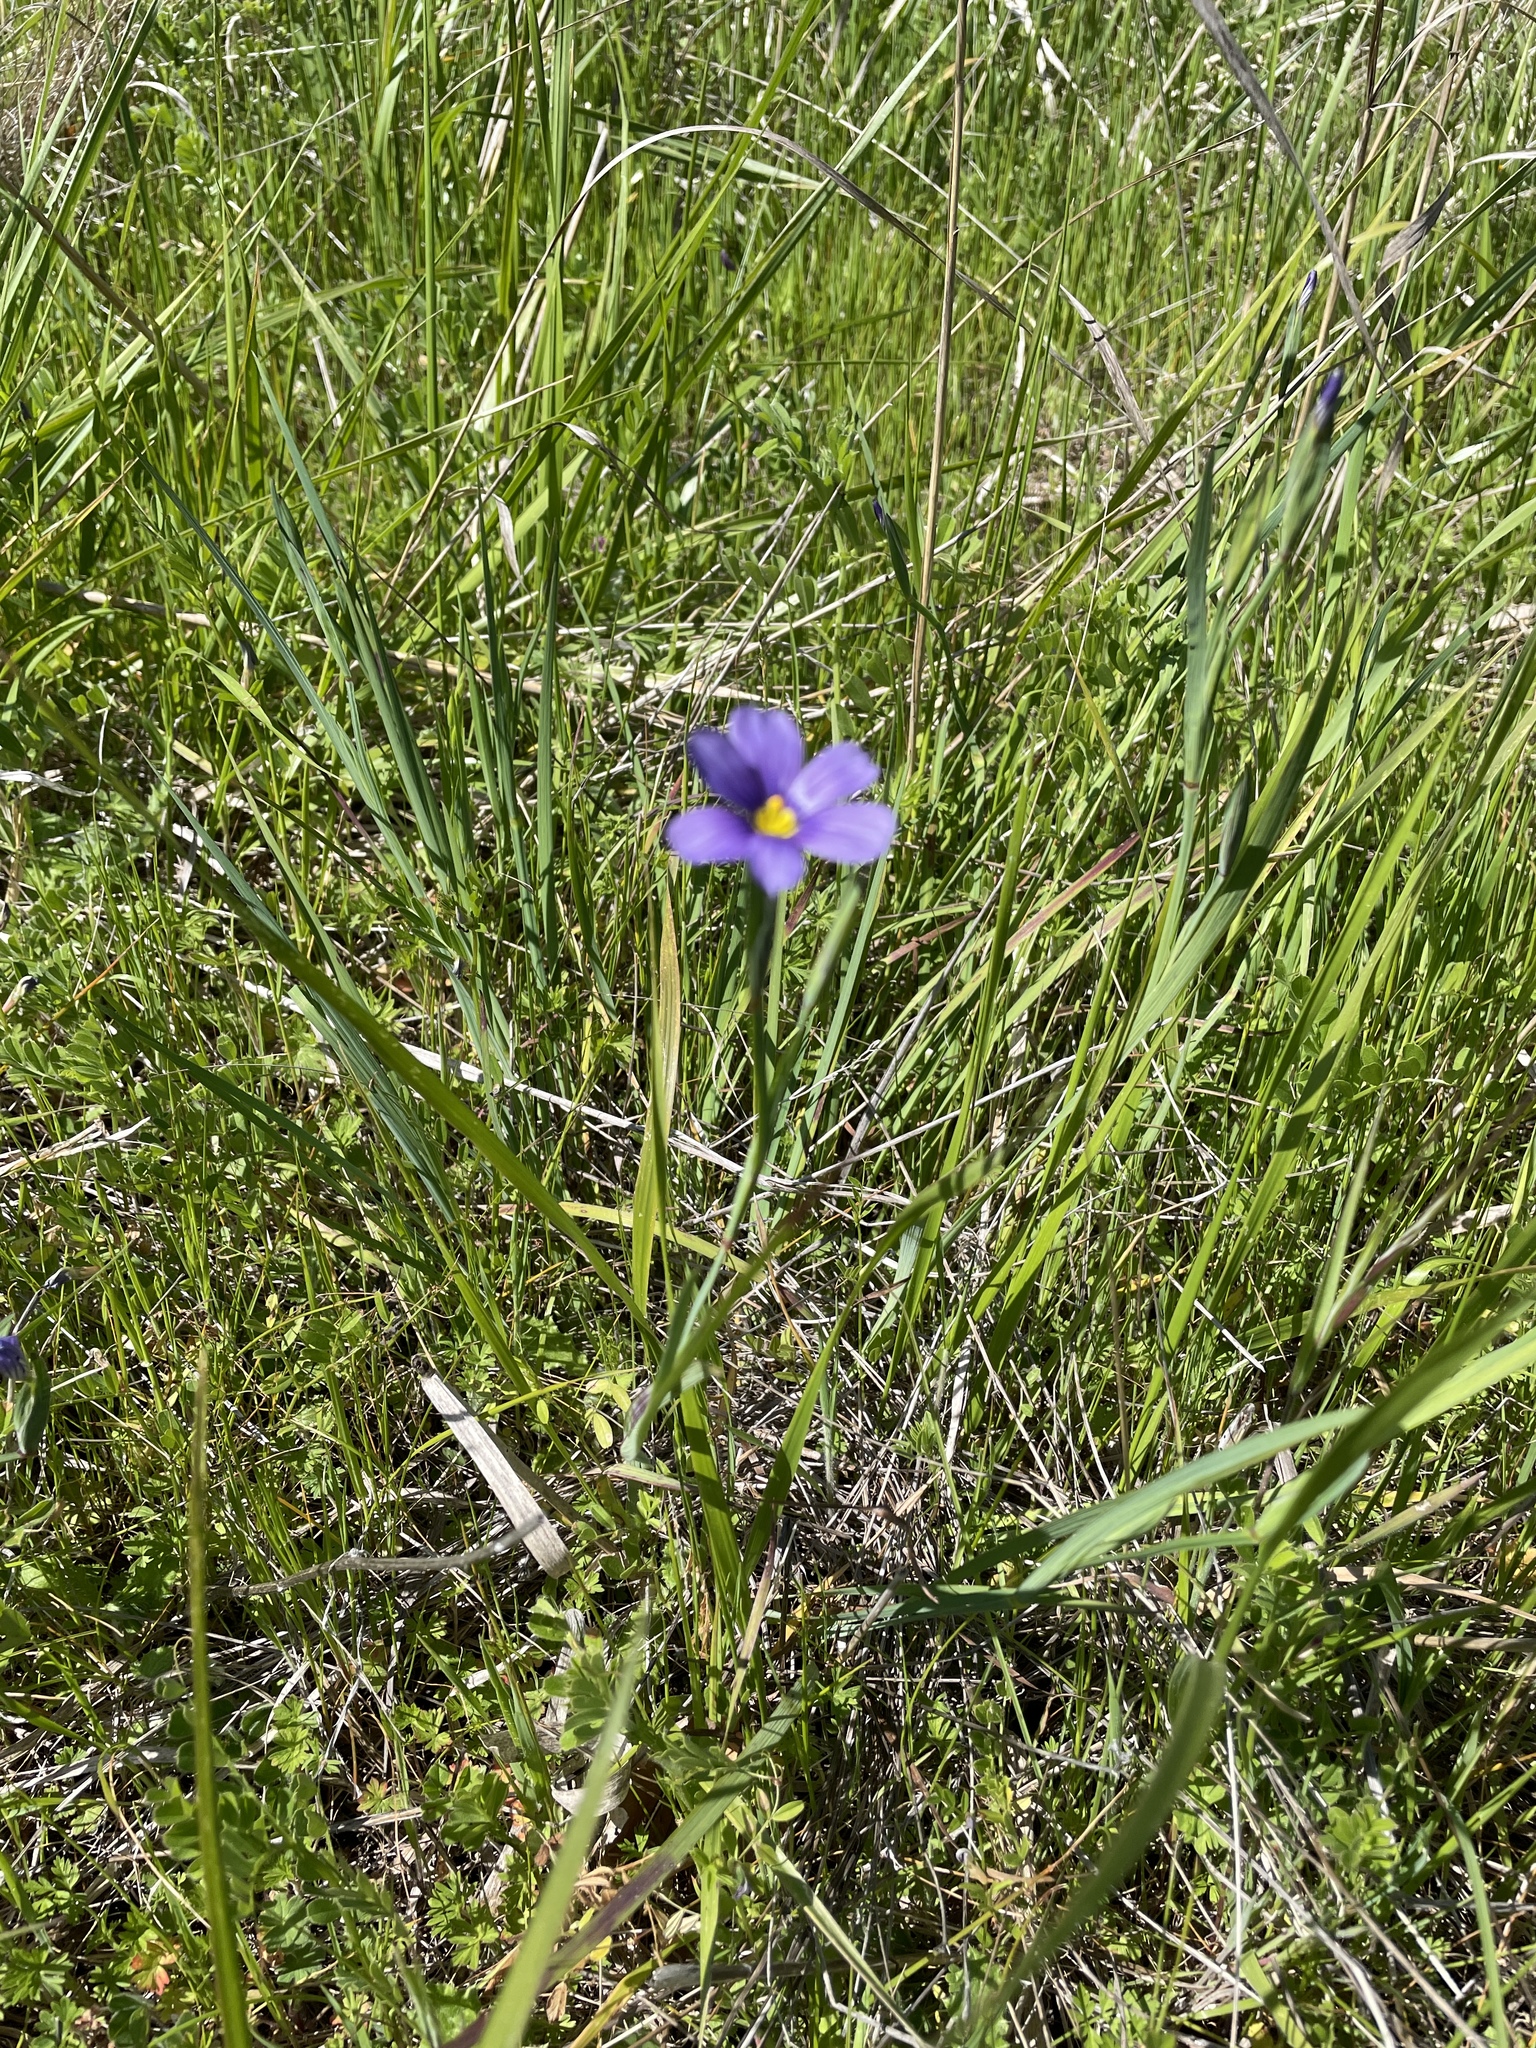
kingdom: Plantae
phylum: Tracheophyta
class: Liliopsida
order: Asparagales
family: Iridaceae
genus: Sisyrinchium
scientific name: Sisyrinchium bellum
